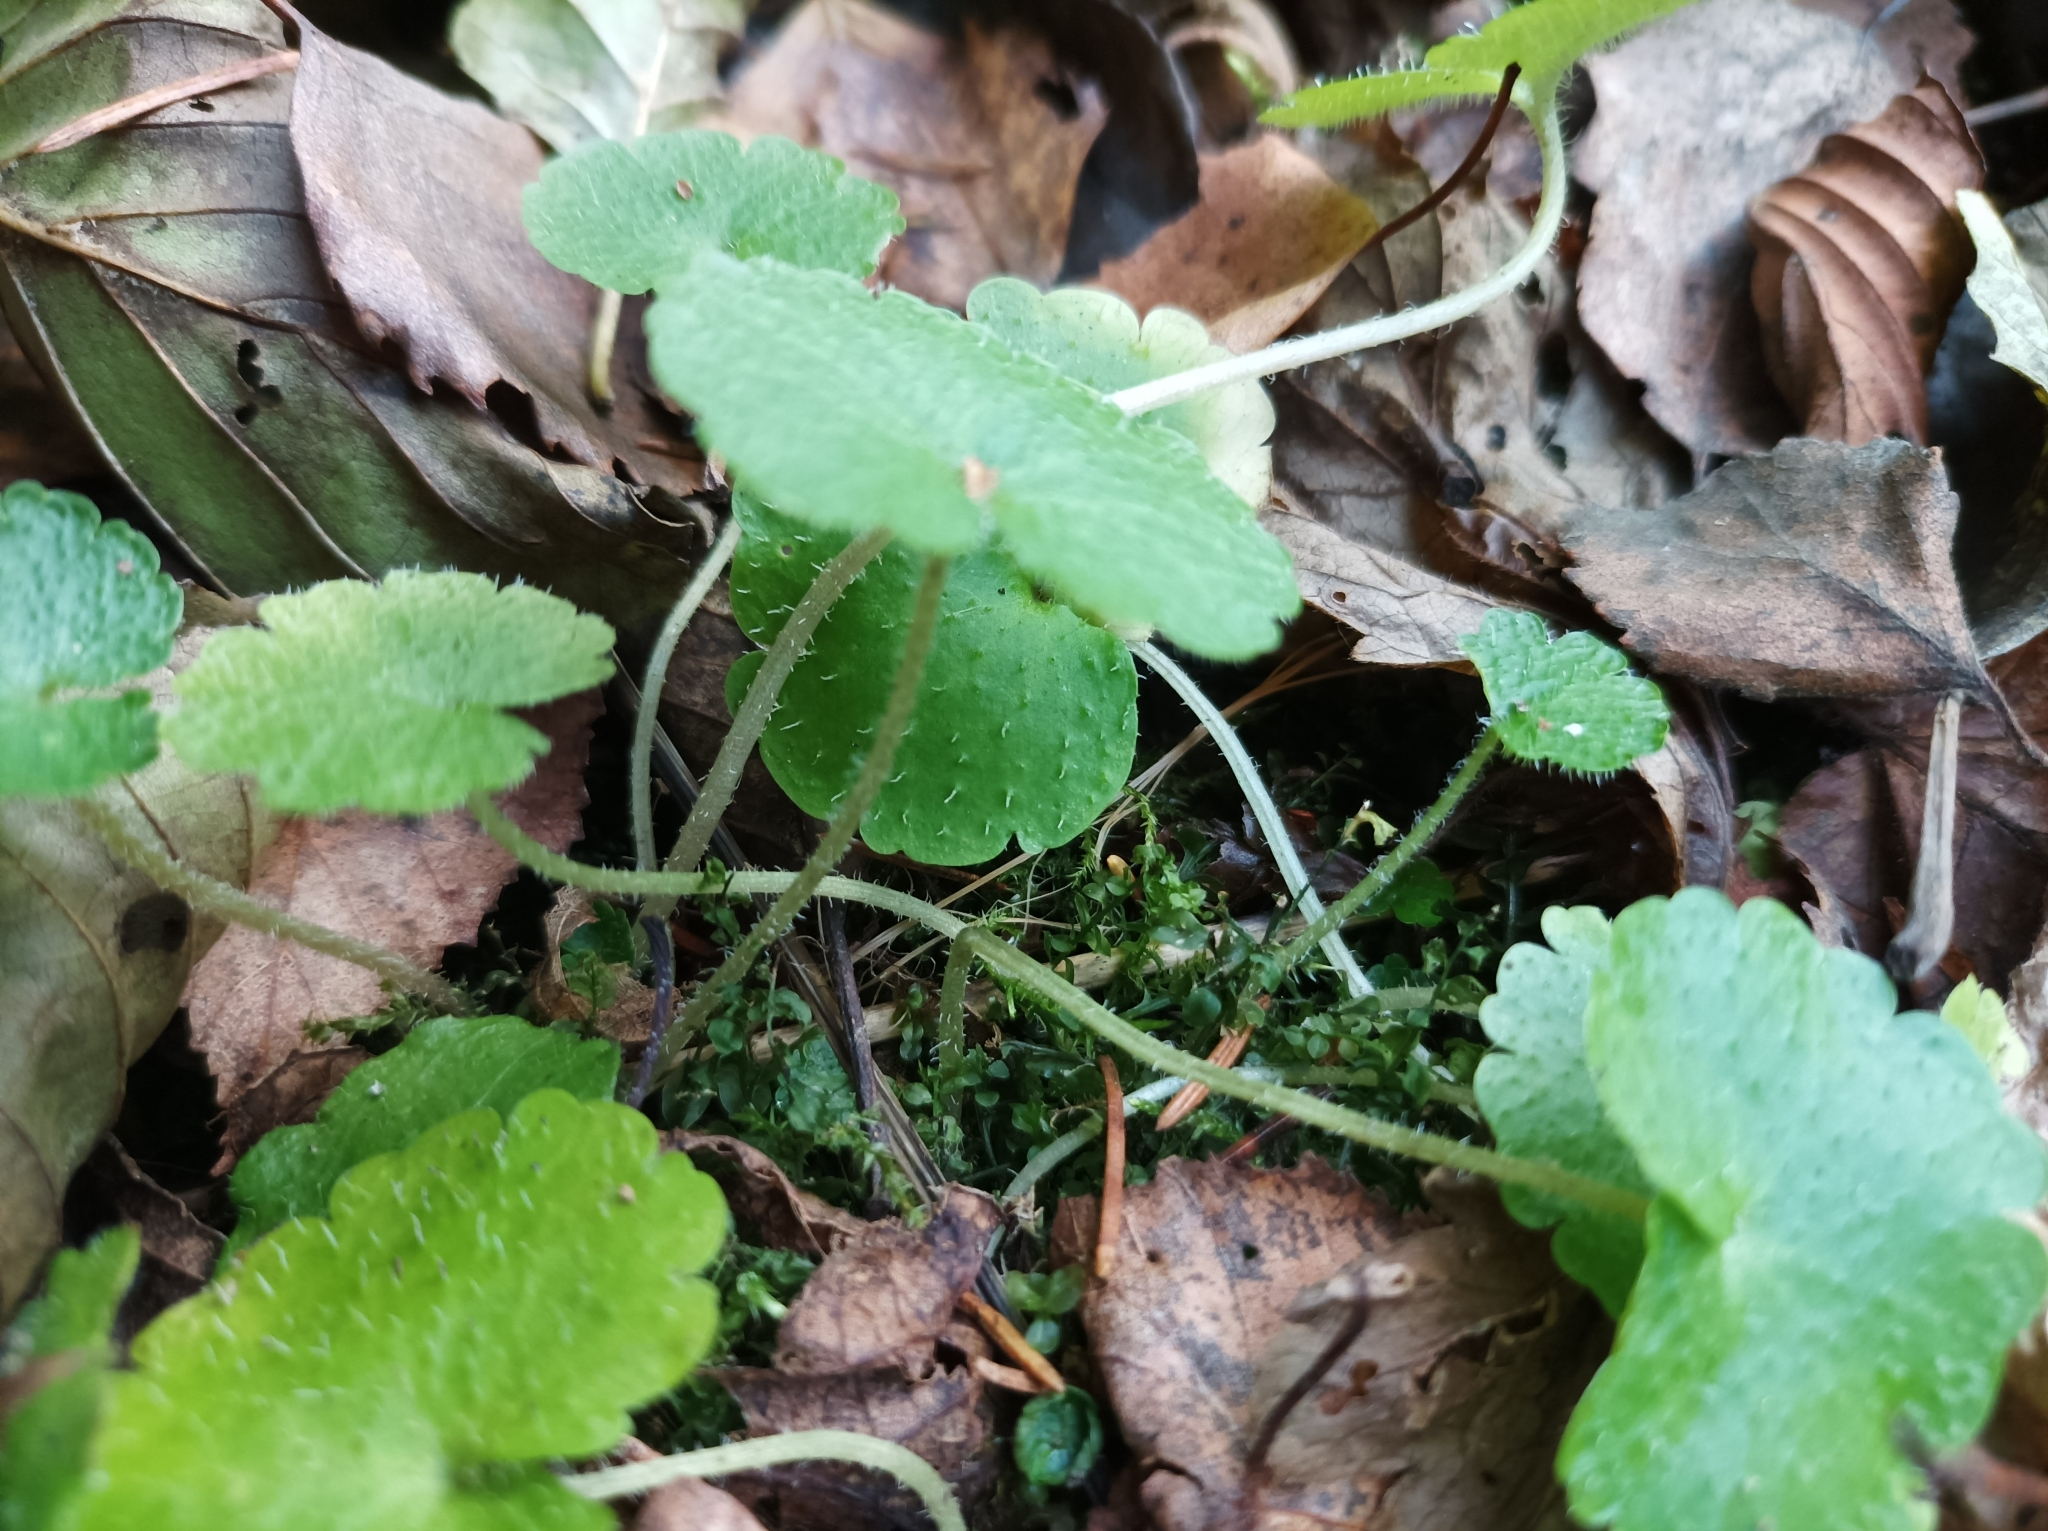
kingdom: Plantae
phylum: Tracheophyta
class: Magnoliopsida
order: Saxifragales
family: Saxifragaceae
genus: Chrysosplenium
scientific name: Chrysosplenium alternifolium
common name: Alternate-leaved golden-saxifrage
